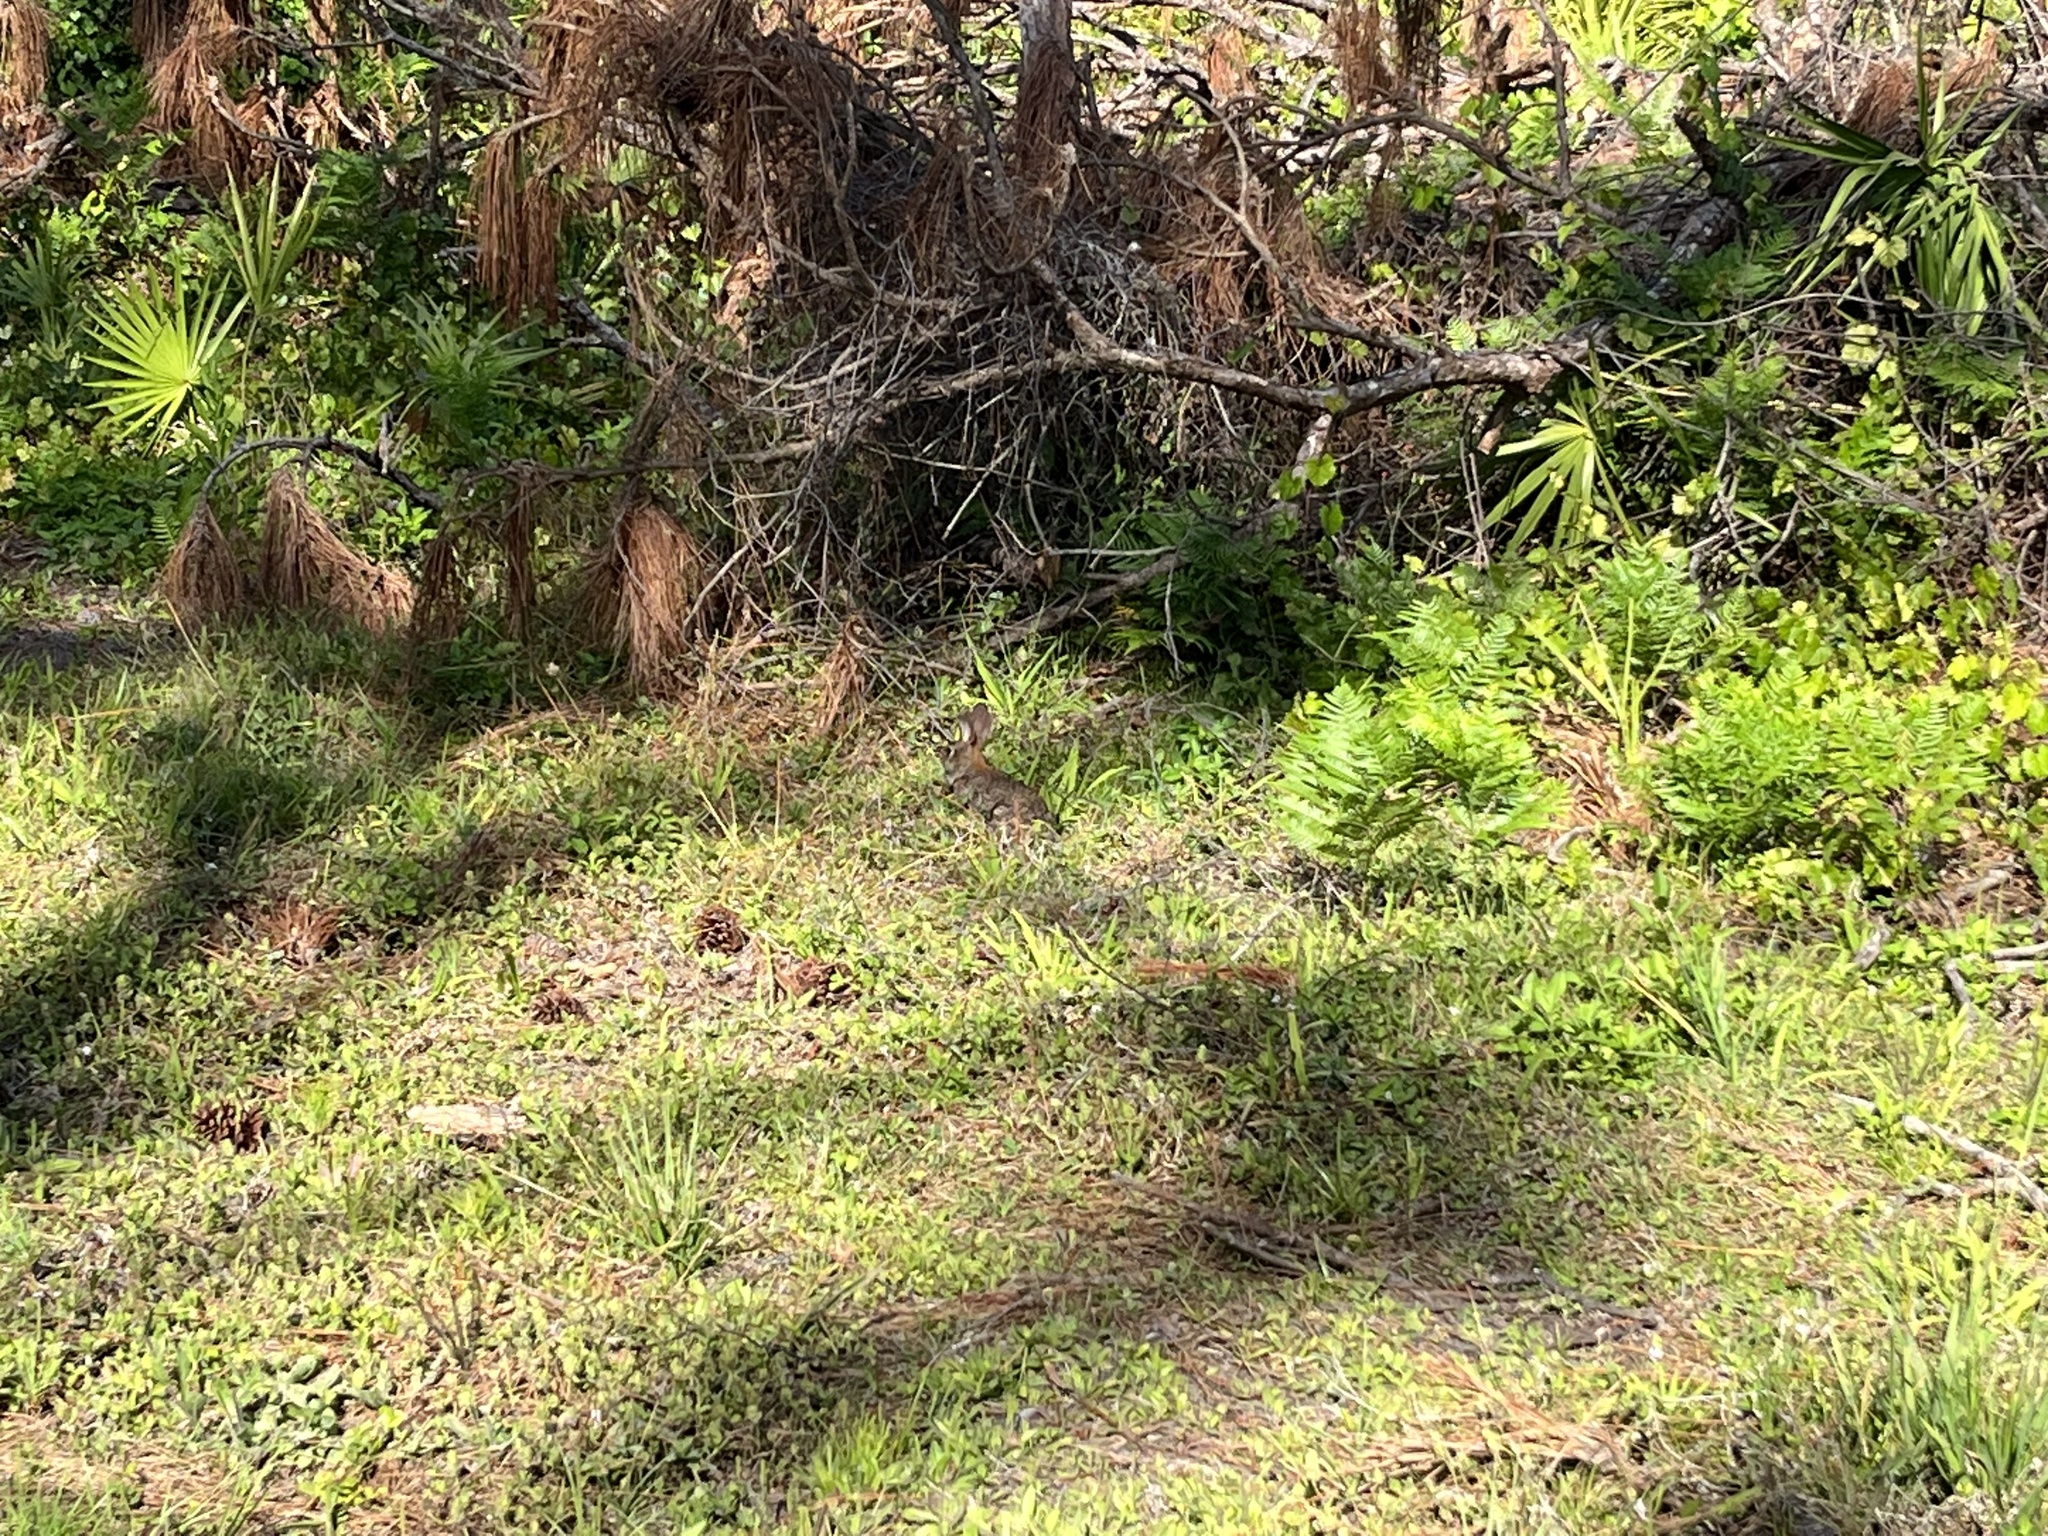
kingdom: Animalia
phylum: Chordata
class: Mammalia
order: Lagomorpha
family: Leporidae
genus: Sylvilagus
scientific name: Sylvilagus floridanus
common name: Eastern cottontail
